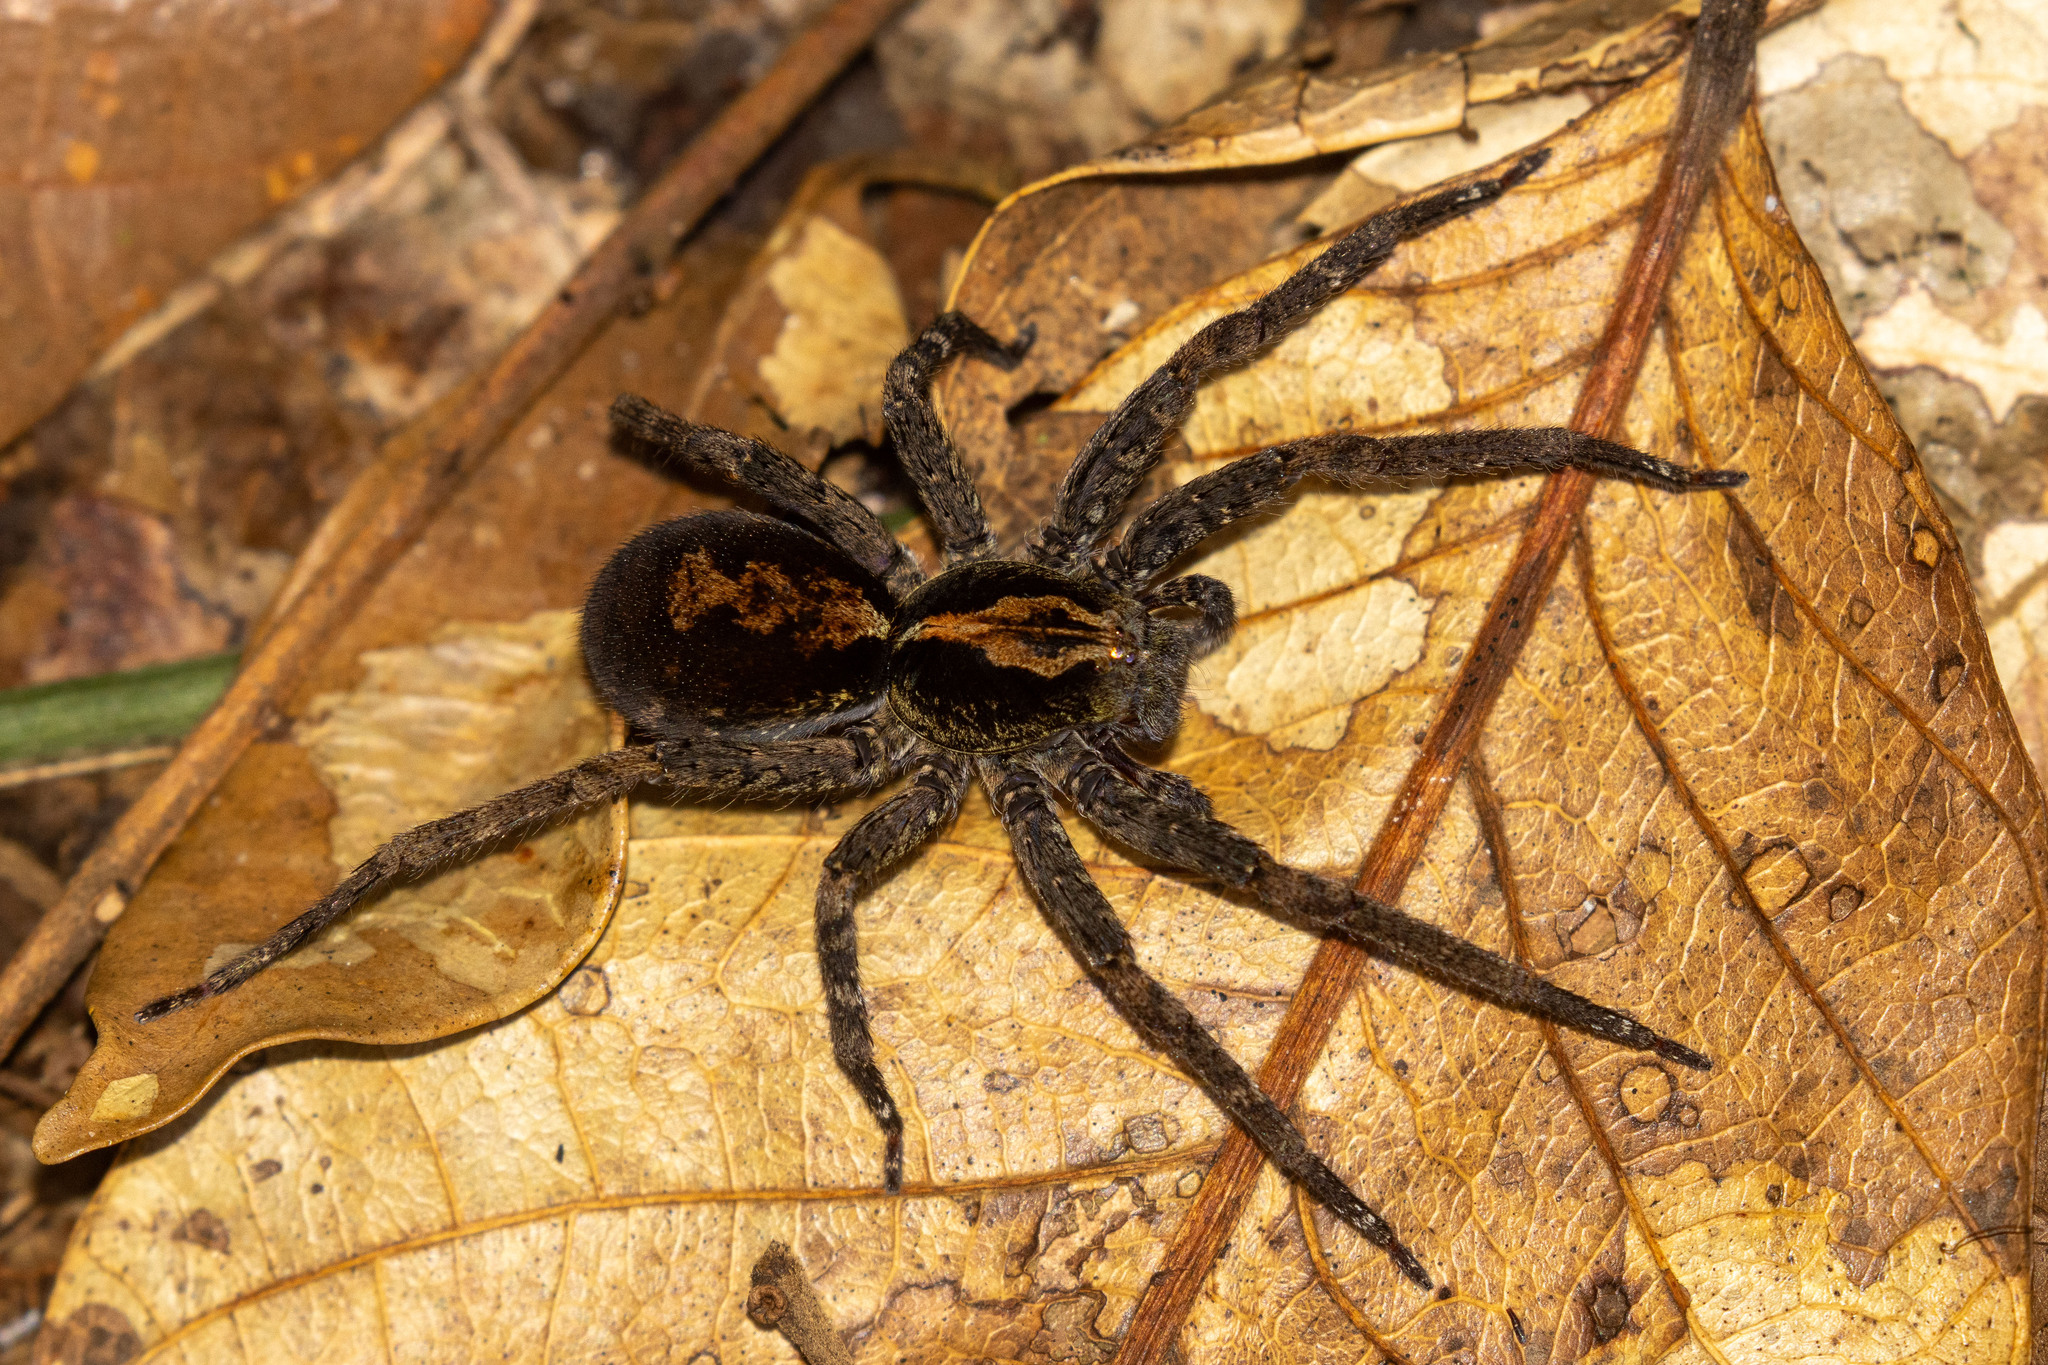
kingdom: Animalia
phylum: Arthropoda
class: Arachnida
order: Araneae
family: Ctenidae
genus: Ctenus
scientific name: Ctenus ornatus
